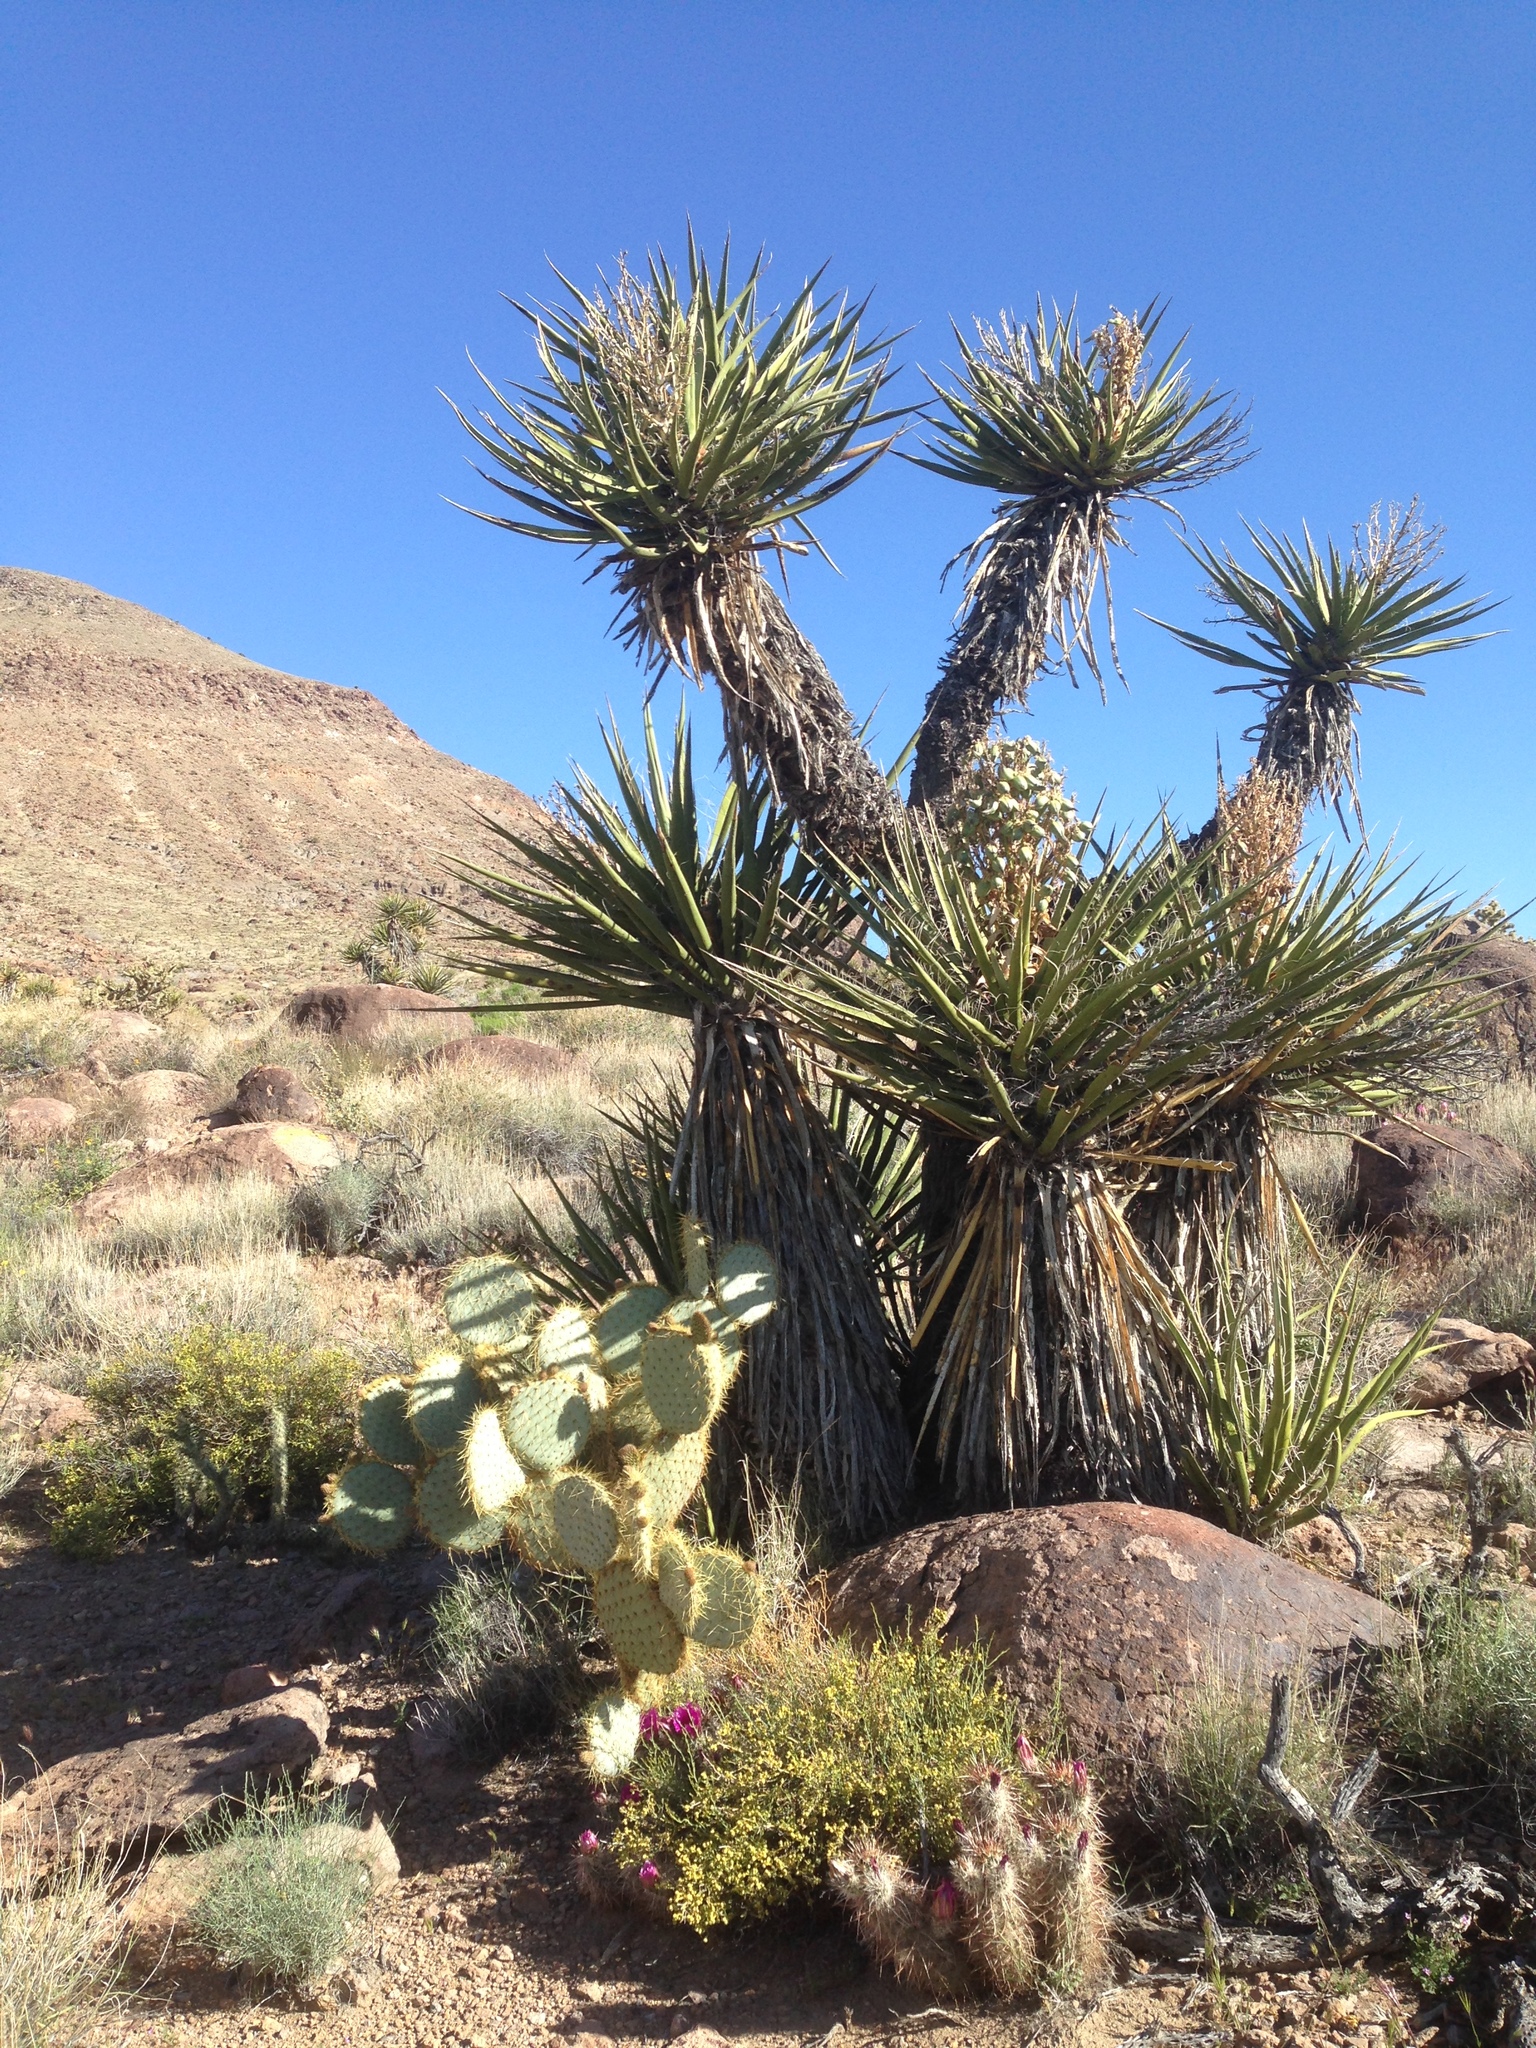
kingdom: Plantae
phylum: Tracheophyta
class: Liliopsida
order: Asparagales
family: Asparagaceae
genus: Yucca
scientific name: Yucca schidigera
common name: Mojave yucca
